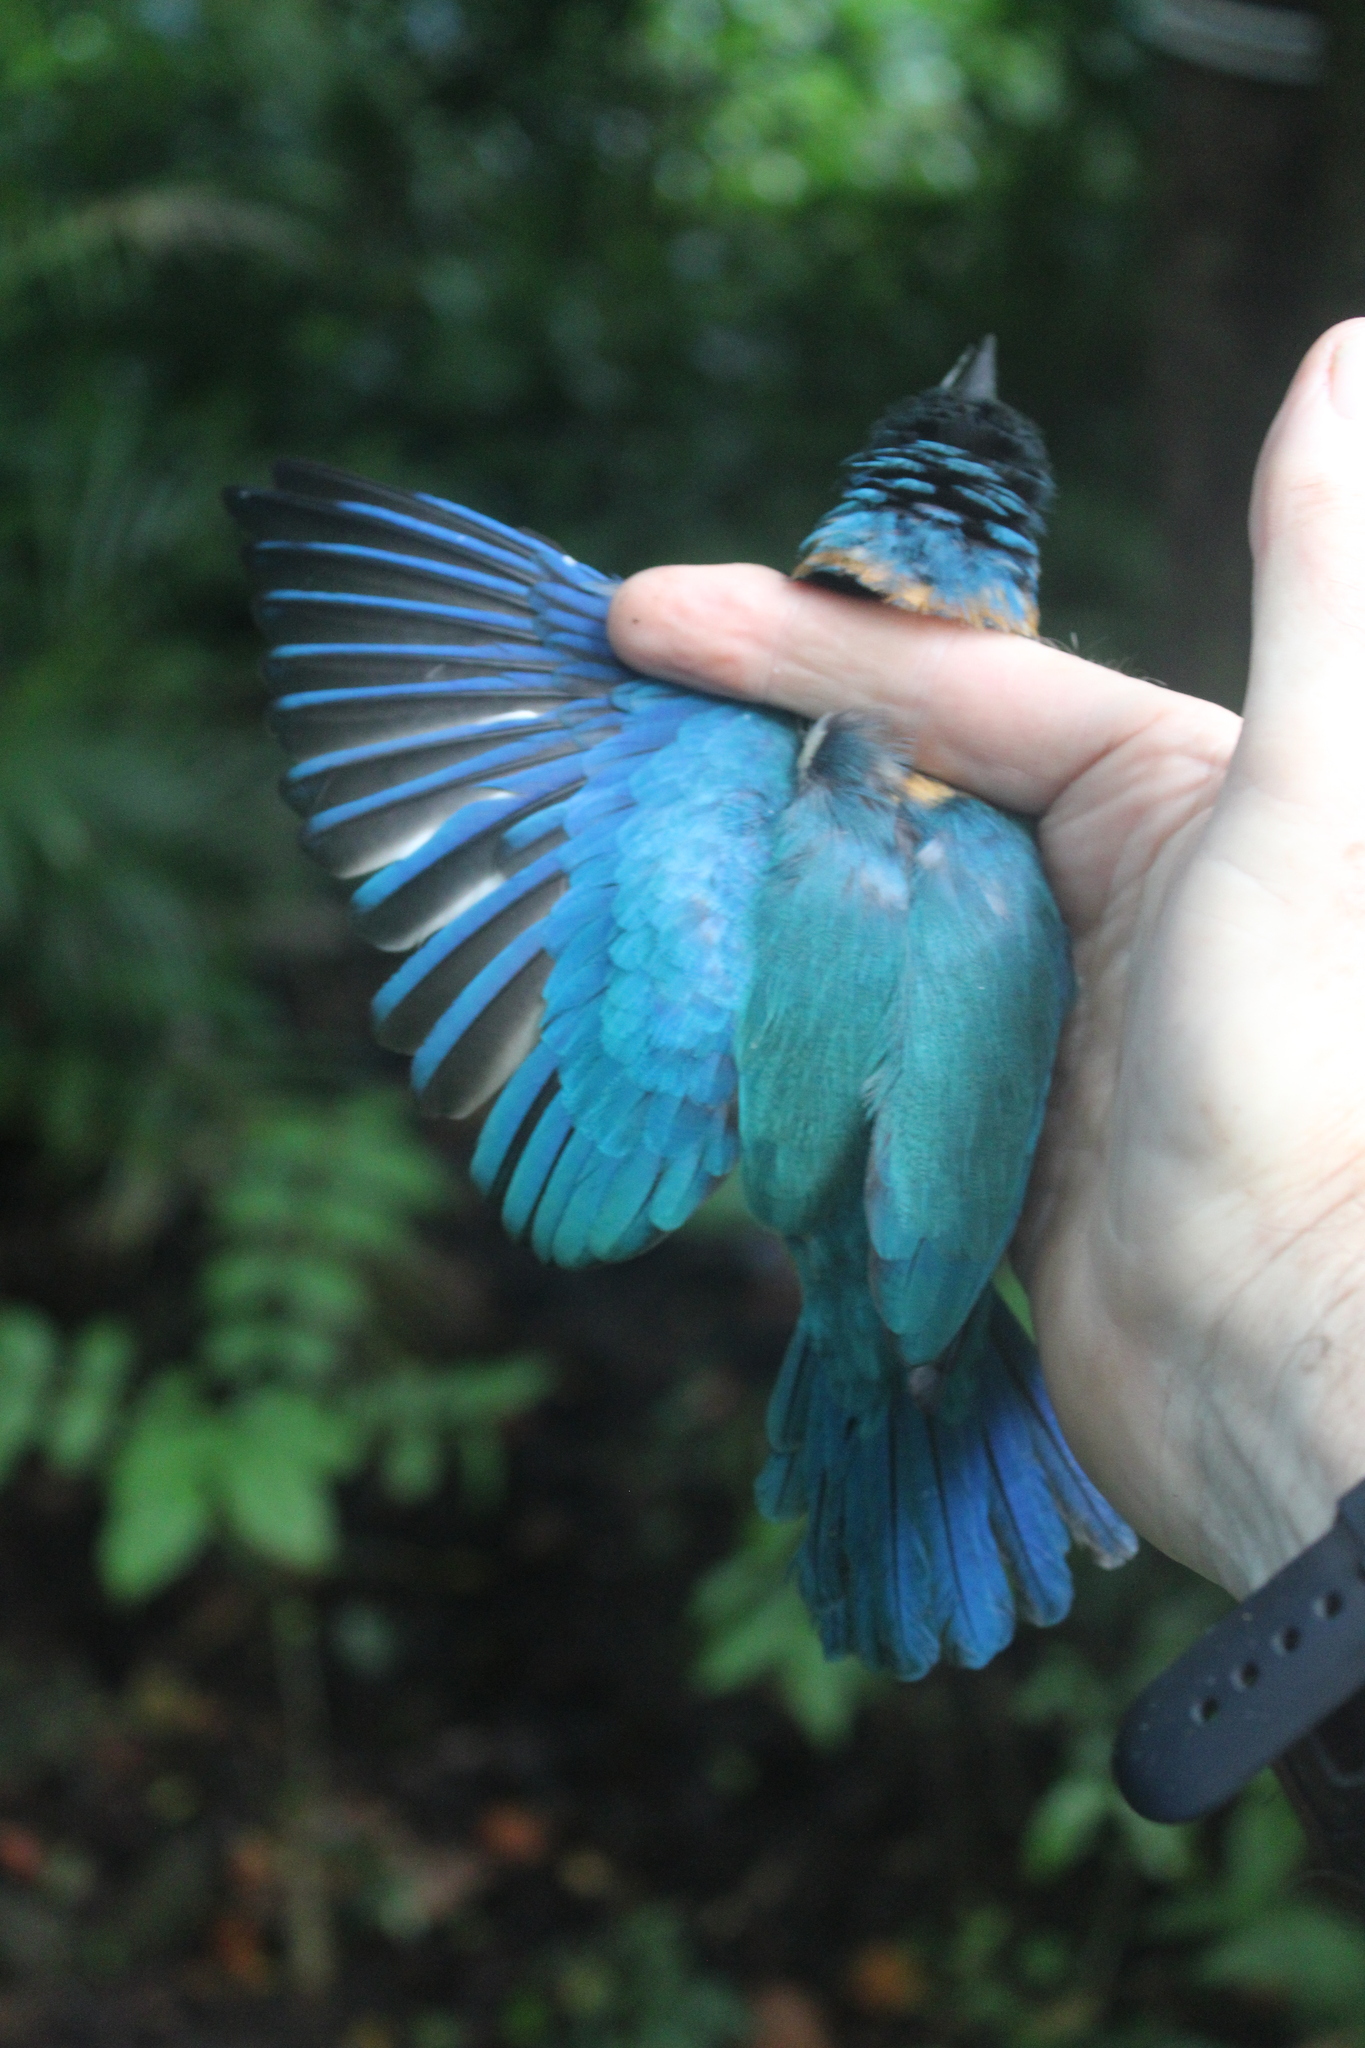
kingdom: Animalia
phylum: Chordata
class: Aves
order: Coraciiformes
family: Alcedinidae
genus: Todiramphus
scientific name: Todiramphus sacer
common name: Pacific kingfisher
